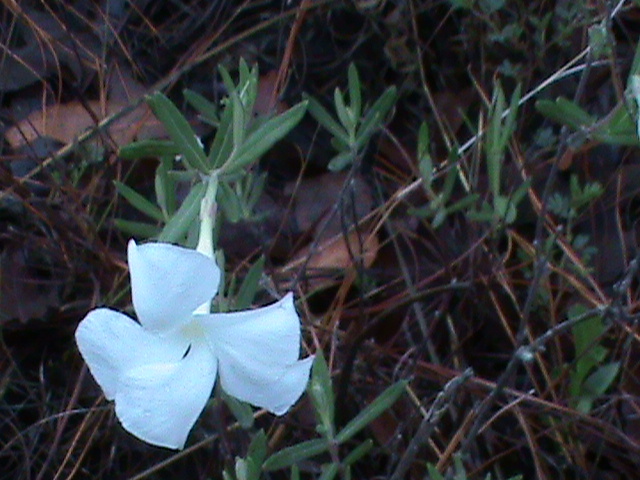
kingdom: Plantae
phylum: Tracheophyta
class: Magnoliopsida
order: Gentianales
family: Apocynaceae
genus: Mandevilla
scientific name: Mandevilla hypoleuca
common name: Davis mountain rocktrumpet
